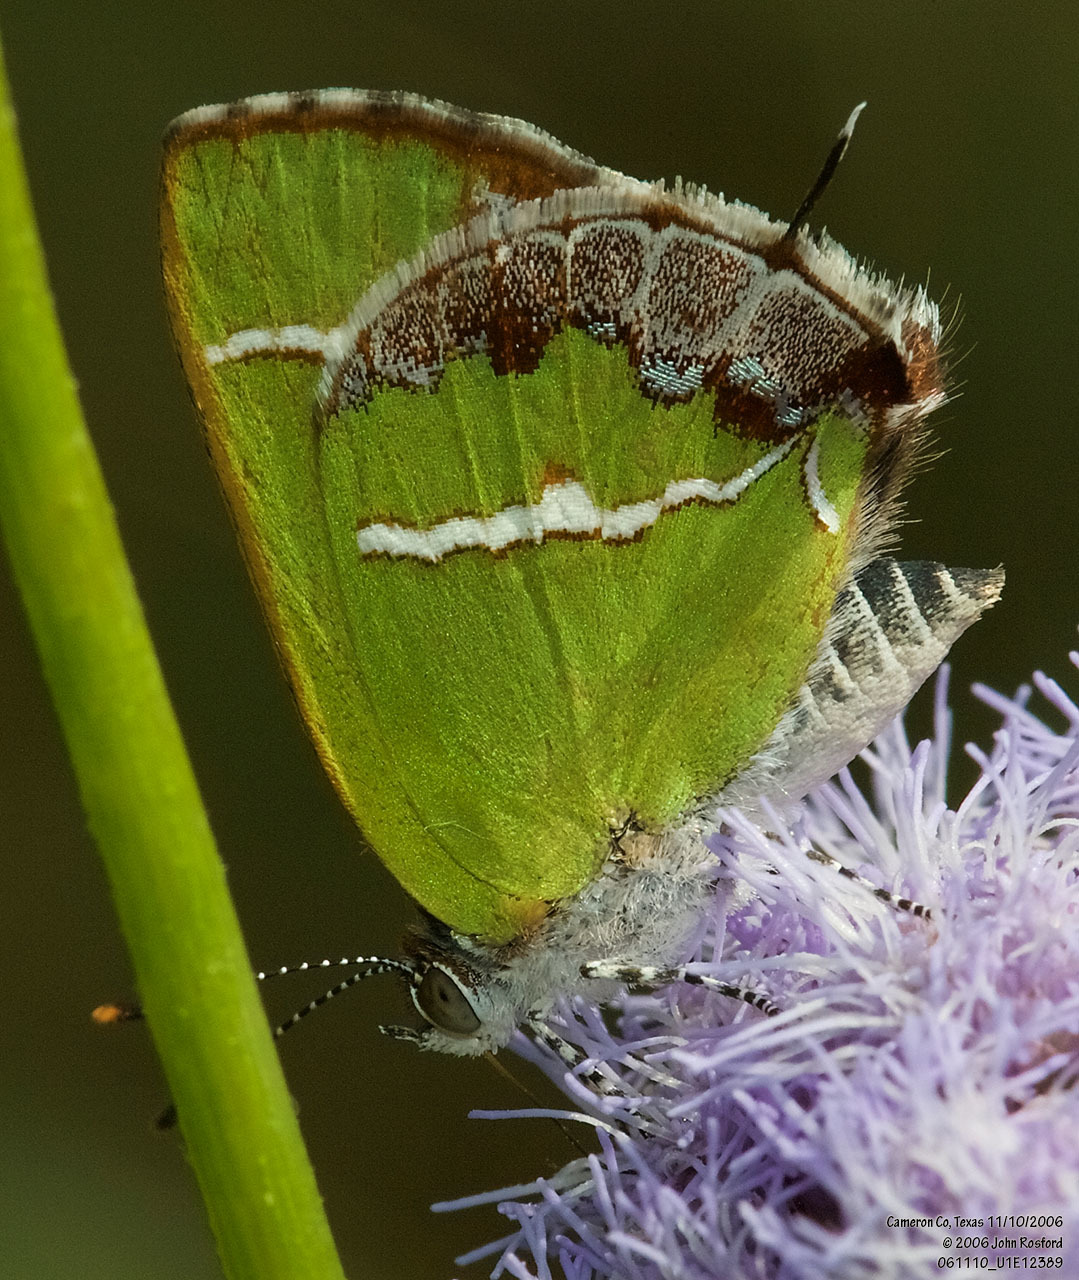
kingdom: Animalia
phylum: Arthropoda
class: Insecta
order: Lepidoptera
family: Lycaenidae
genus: Chlorostrymon
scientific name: Chlorostrymon simaethis
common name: Silver-banded hairstreak
